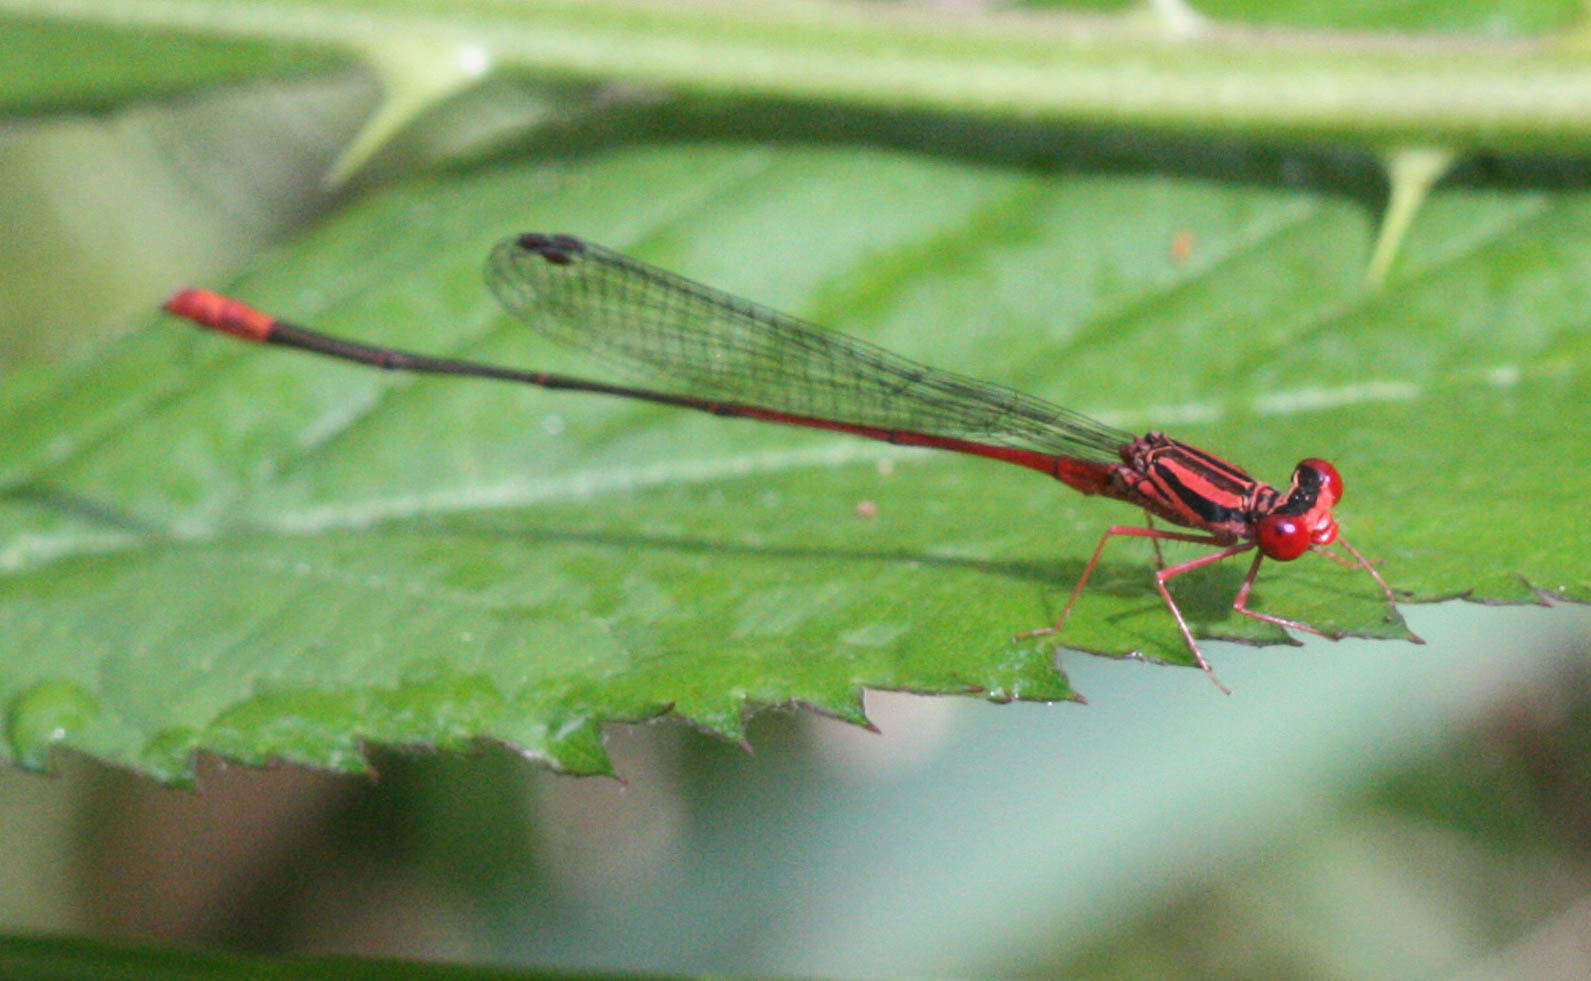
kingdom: Animalia
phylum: Arthropoda
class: Insecta
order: Odonata
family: Coenagrionidae
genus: Megalagrion
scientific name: Megalagrion oresitrophum
